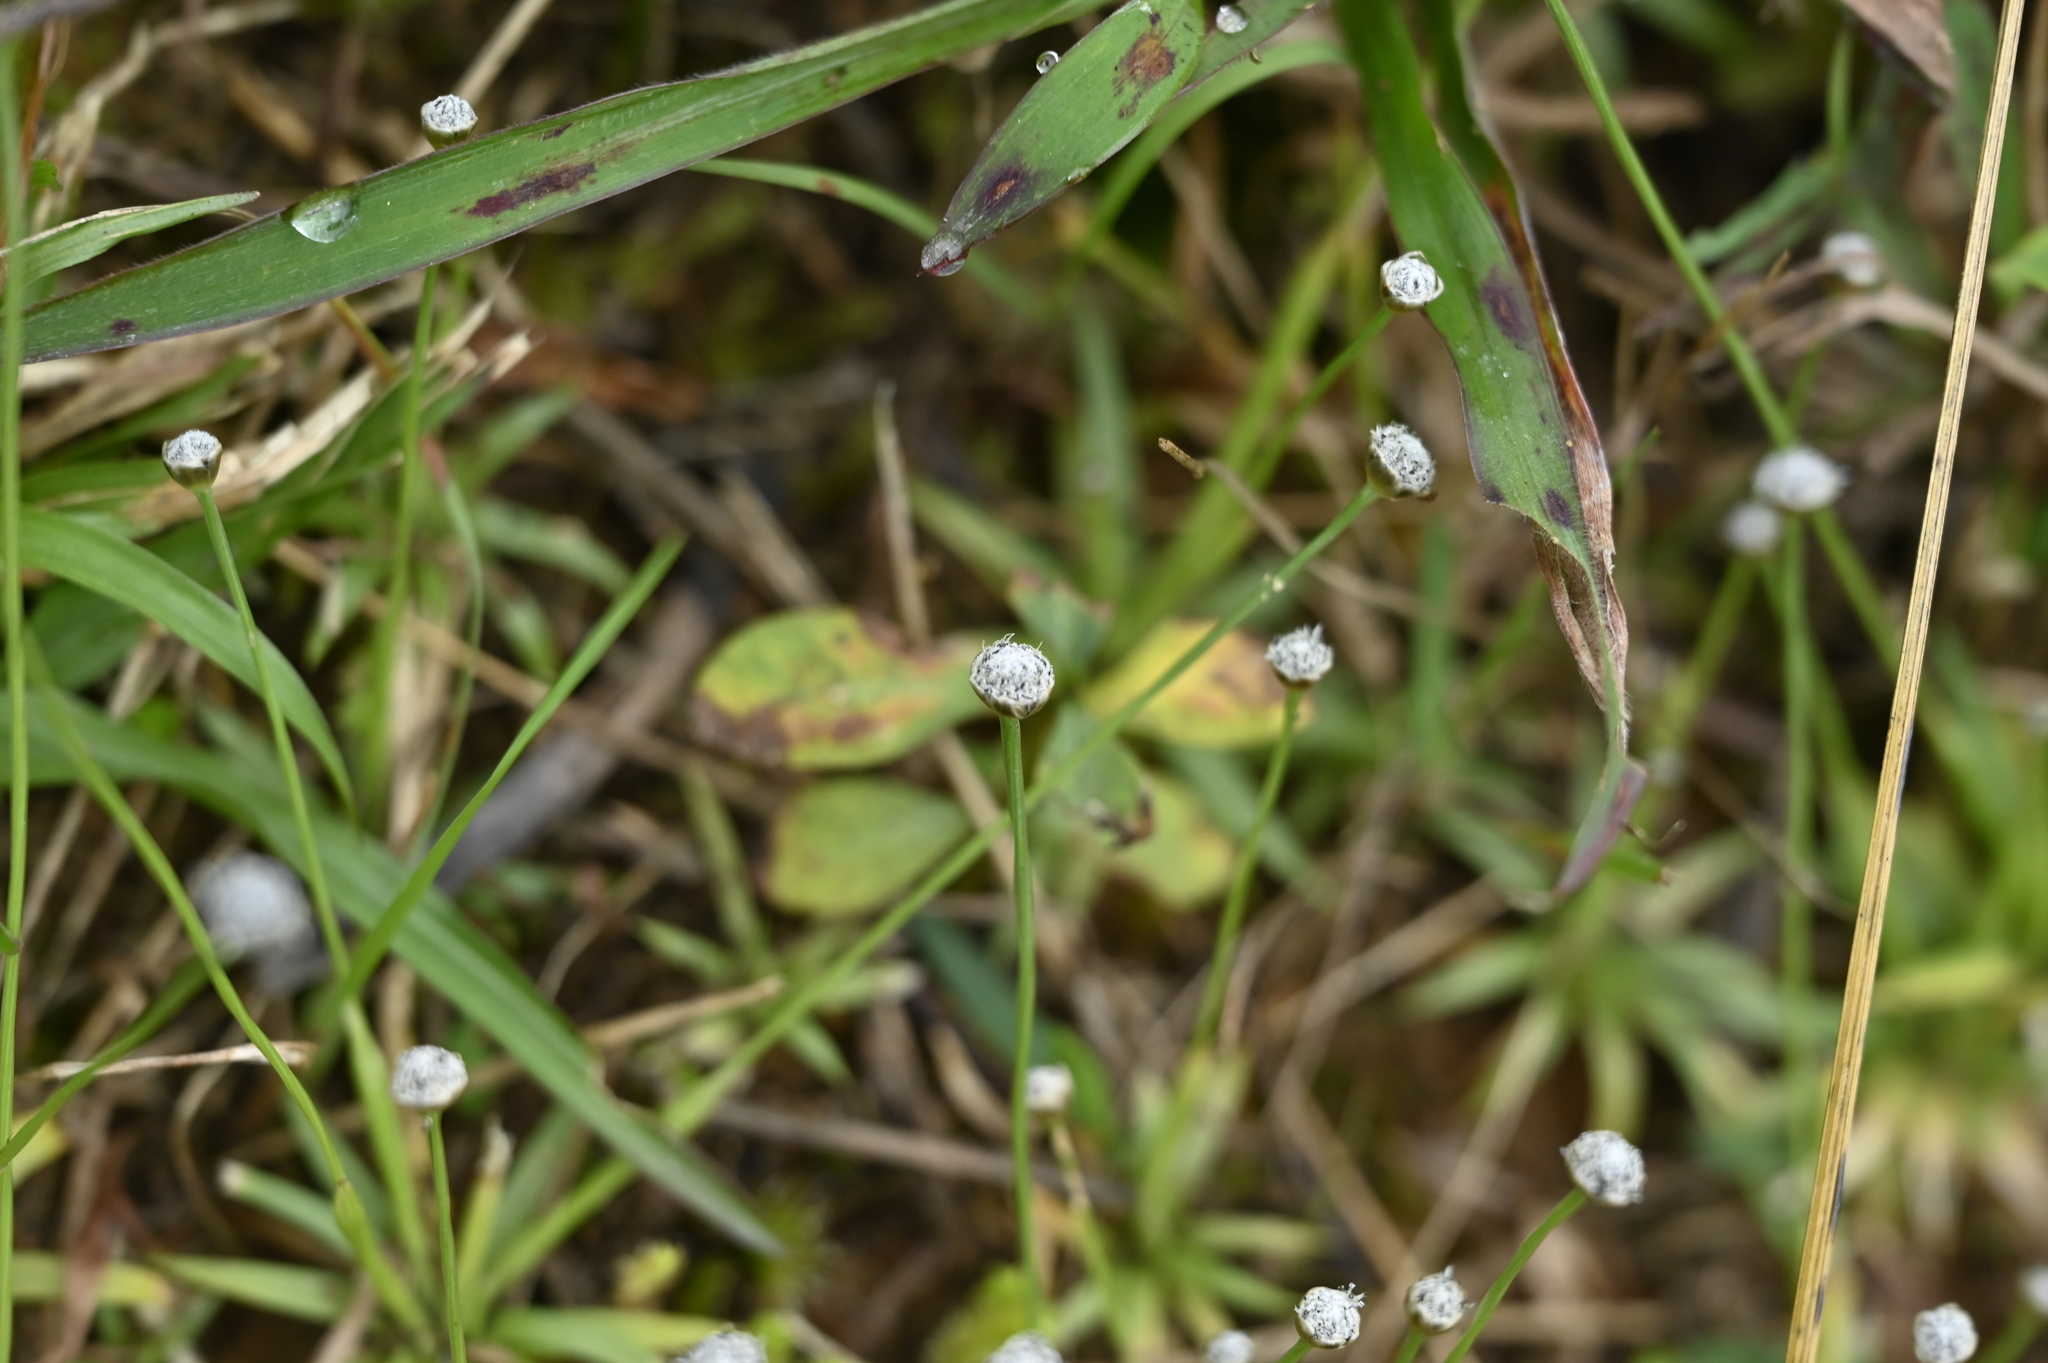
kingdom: Plantae
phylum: Tracheophyta
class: Liliopsida
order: Poales
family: Eriocaulaceae
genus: Eriocaulon
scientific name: Eriocaulon nantoense
